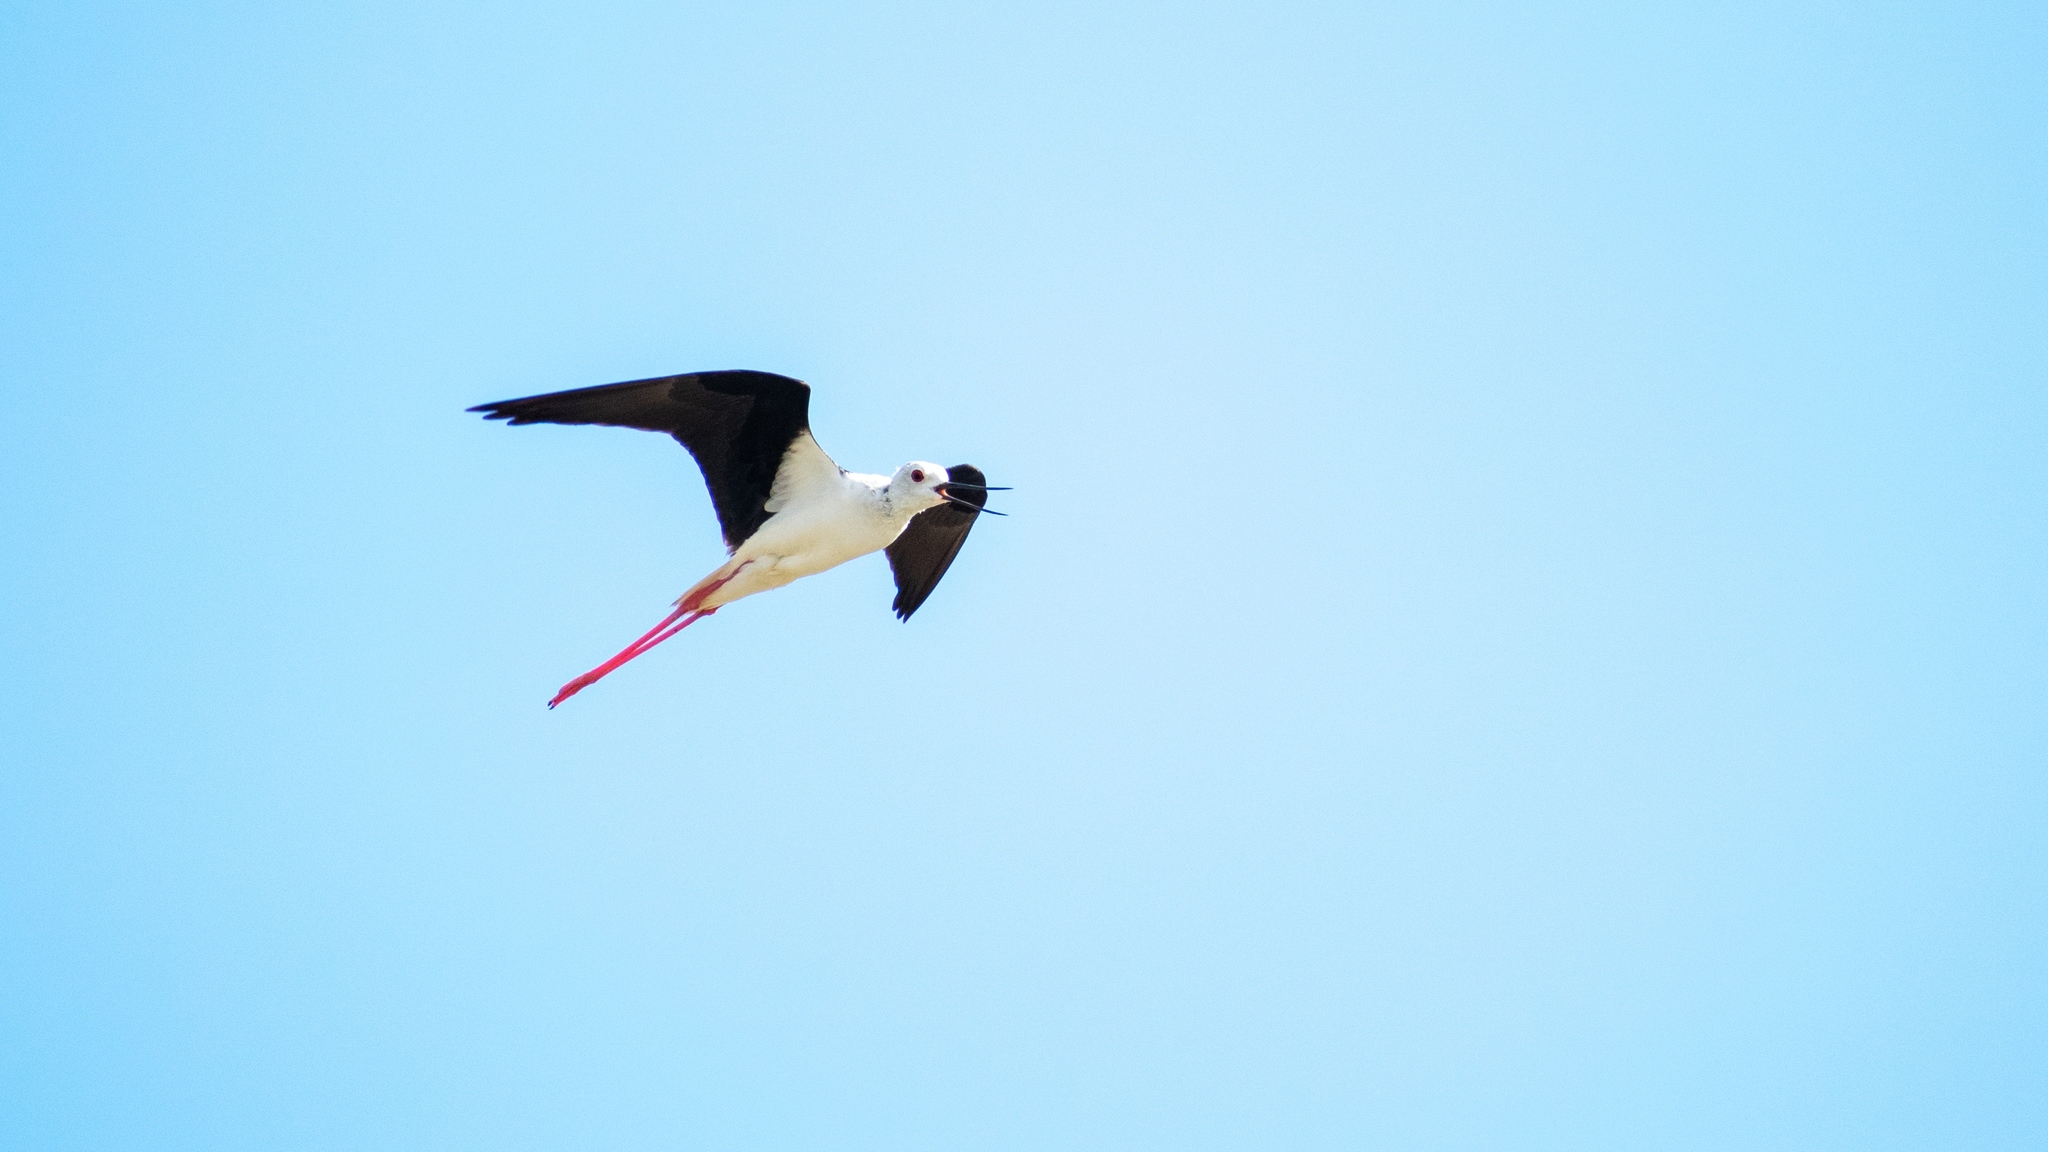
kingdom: Animalia
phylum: Chordata
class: Aves
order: Charadriiformes
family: Recurvirostridae
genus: Himantopus
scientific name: Himantopus himantopus
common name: Black-winged stilt
